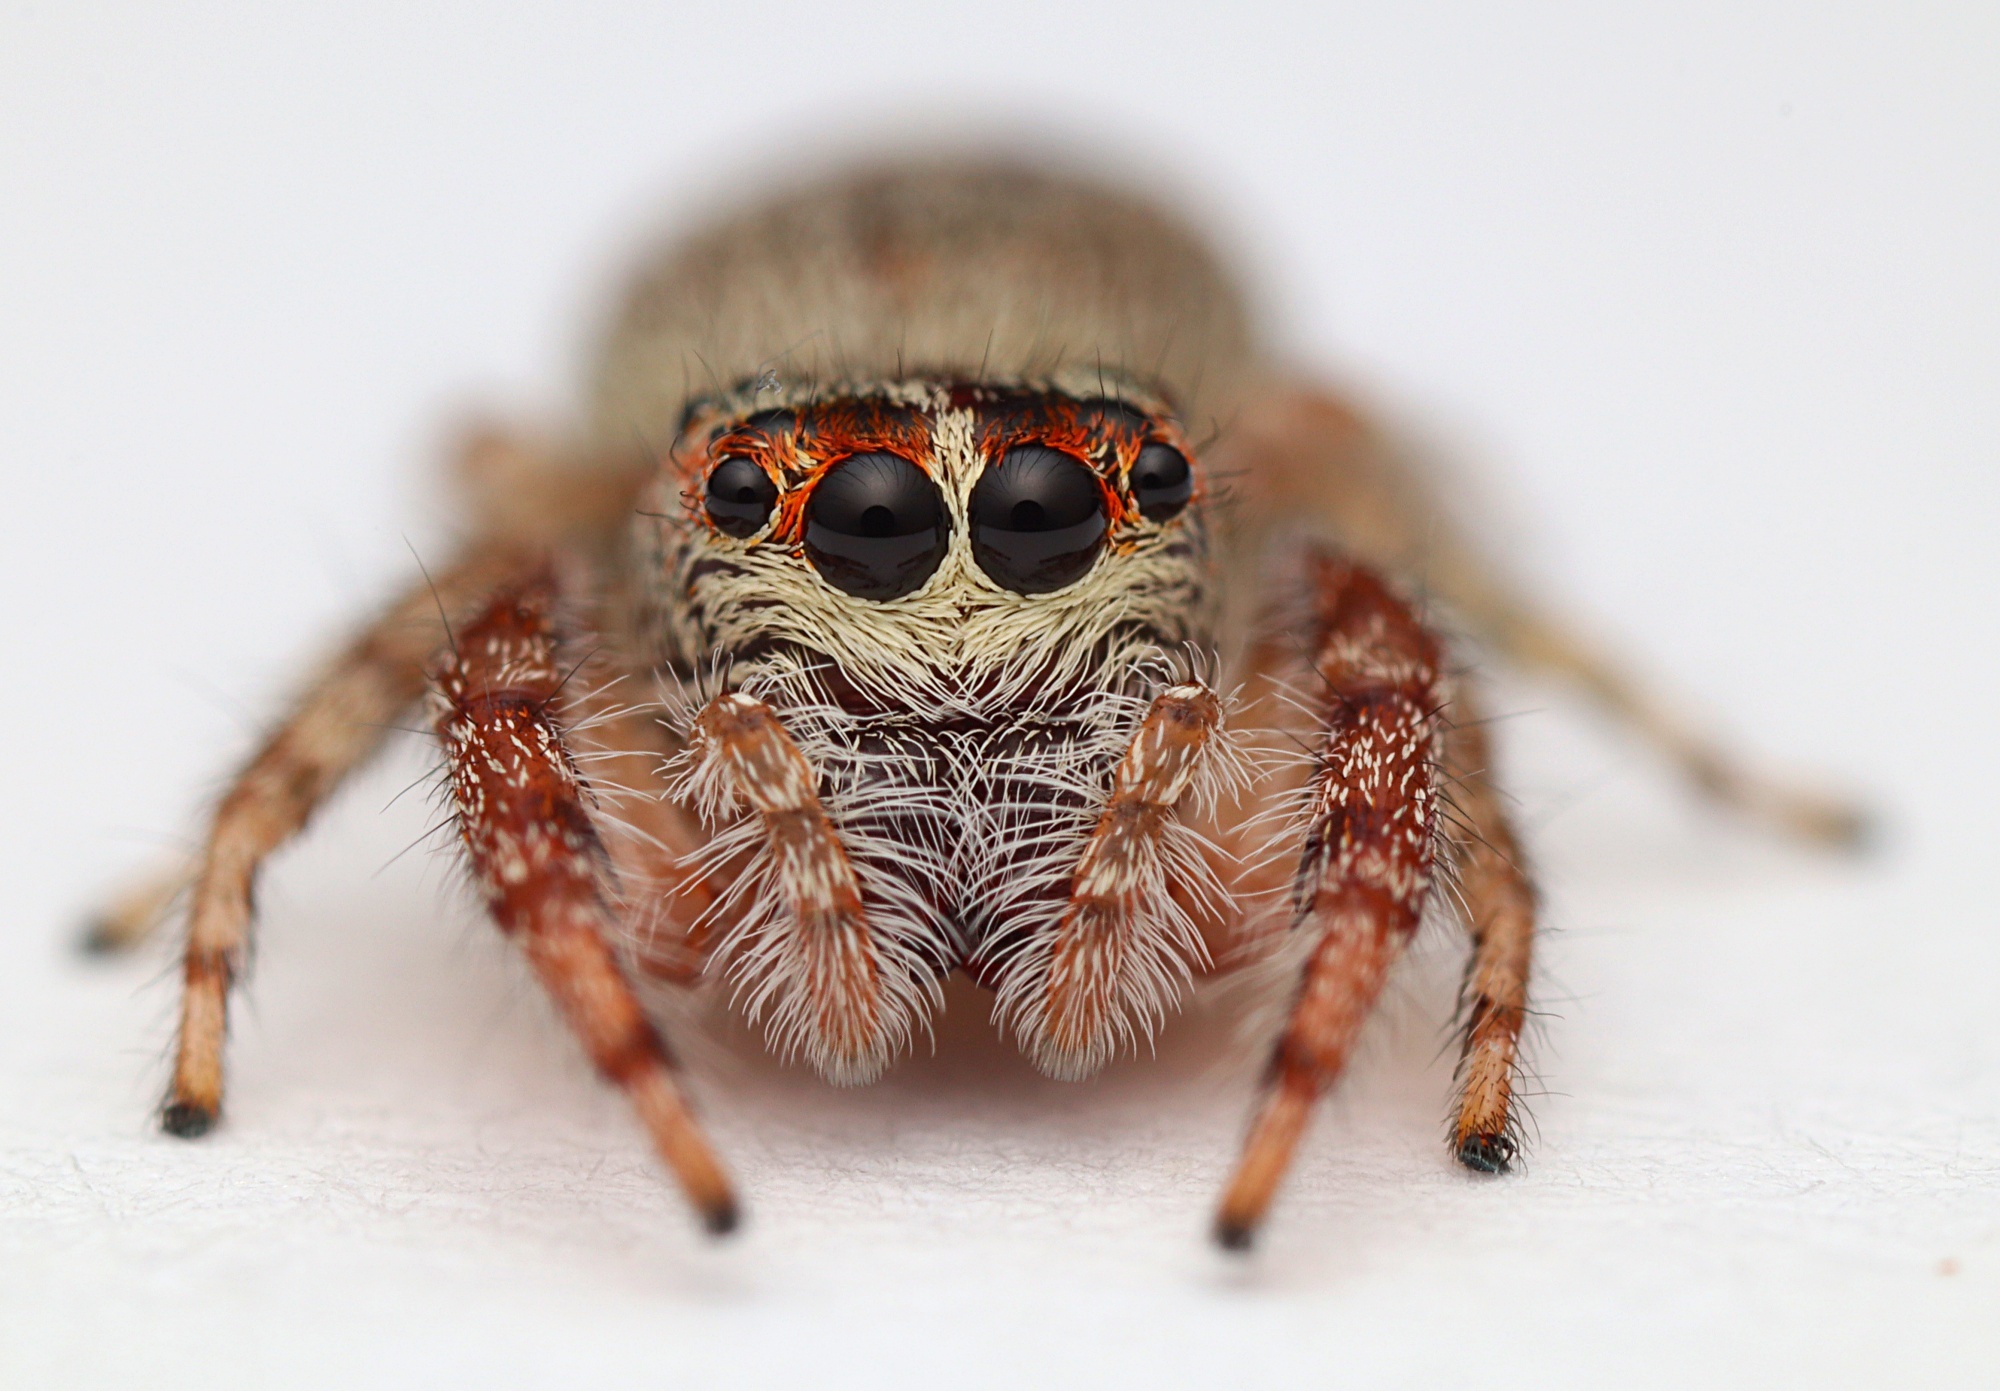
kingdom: Animalia
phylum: Arthropoda
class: Arachnida
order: Araneae
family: Salticidae
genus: Opisthoncus
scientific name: Opisthoncus polyphemus
